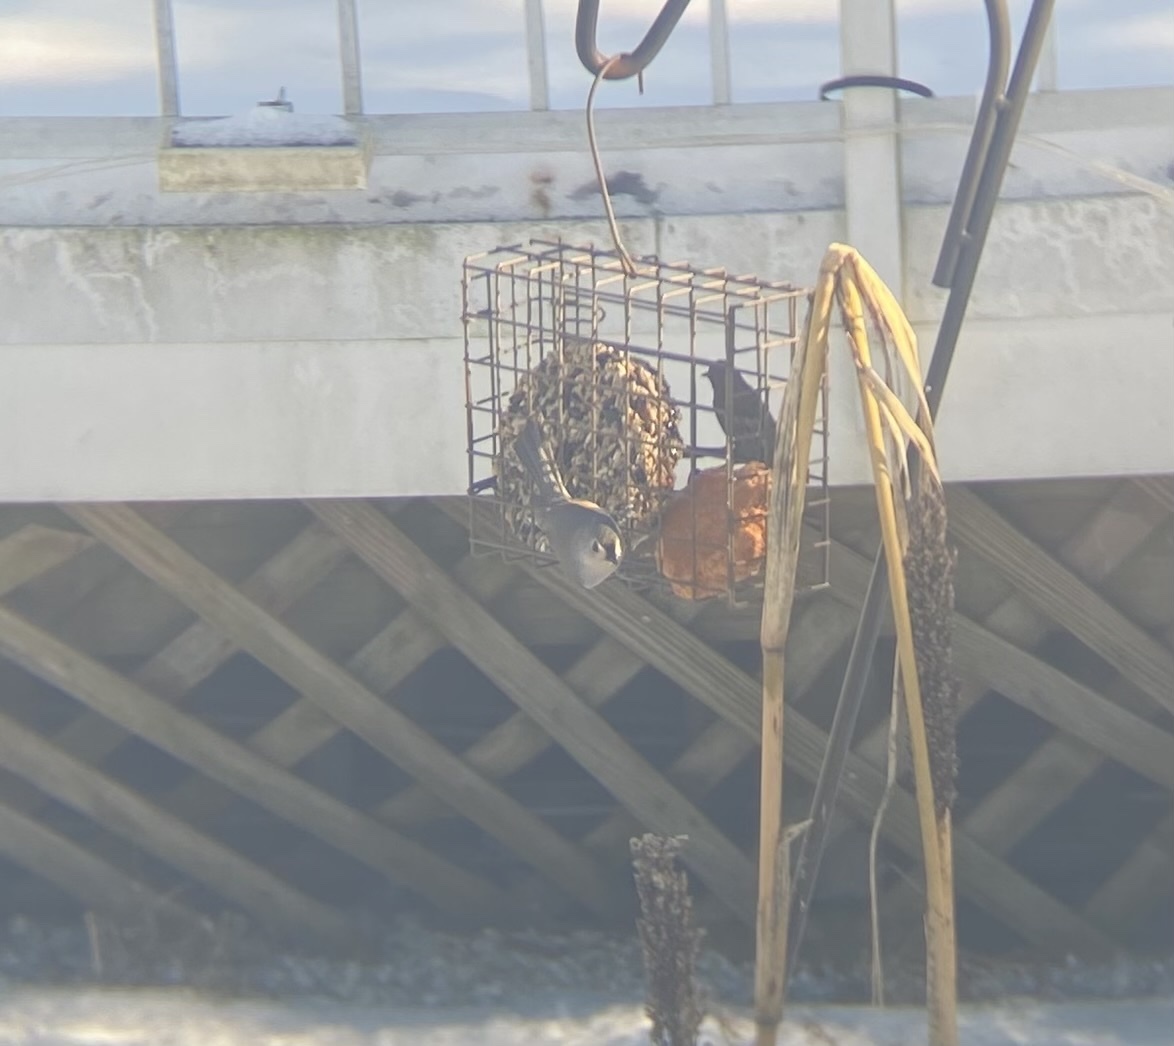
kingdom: Animalia
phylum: Chordata
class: Aves
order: Passeriformes
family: Paridae
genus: Baeolophus
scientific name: Baeolophus bicolor
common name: Tufted titmouse
